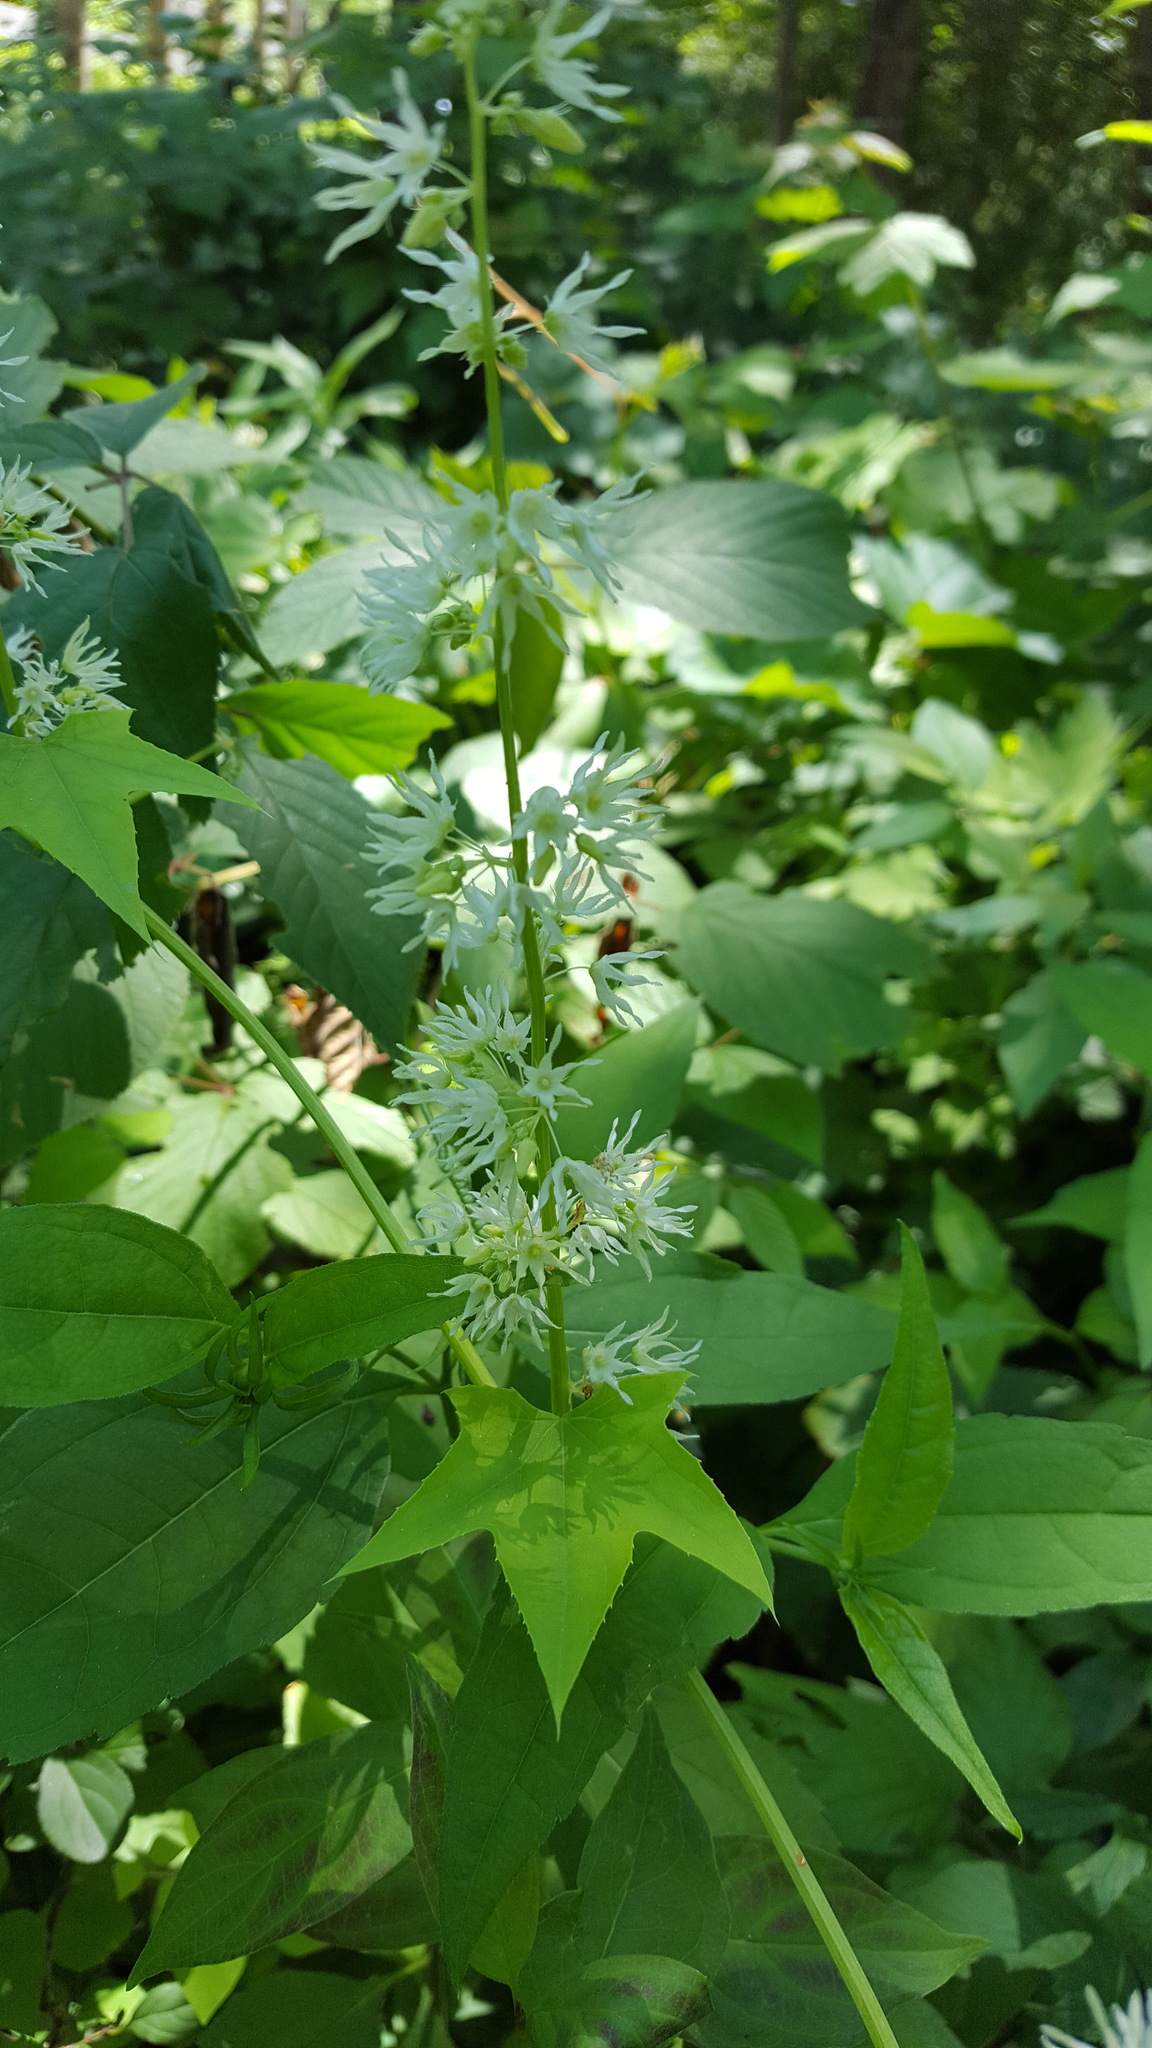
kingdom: Plantae
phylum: Tracheophyta
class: Magnoliopsida
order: Cucurbitales
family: Cucurbitaceae
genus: Echinocystis
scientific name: Echinocystis lobata
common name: Wild cucumber
